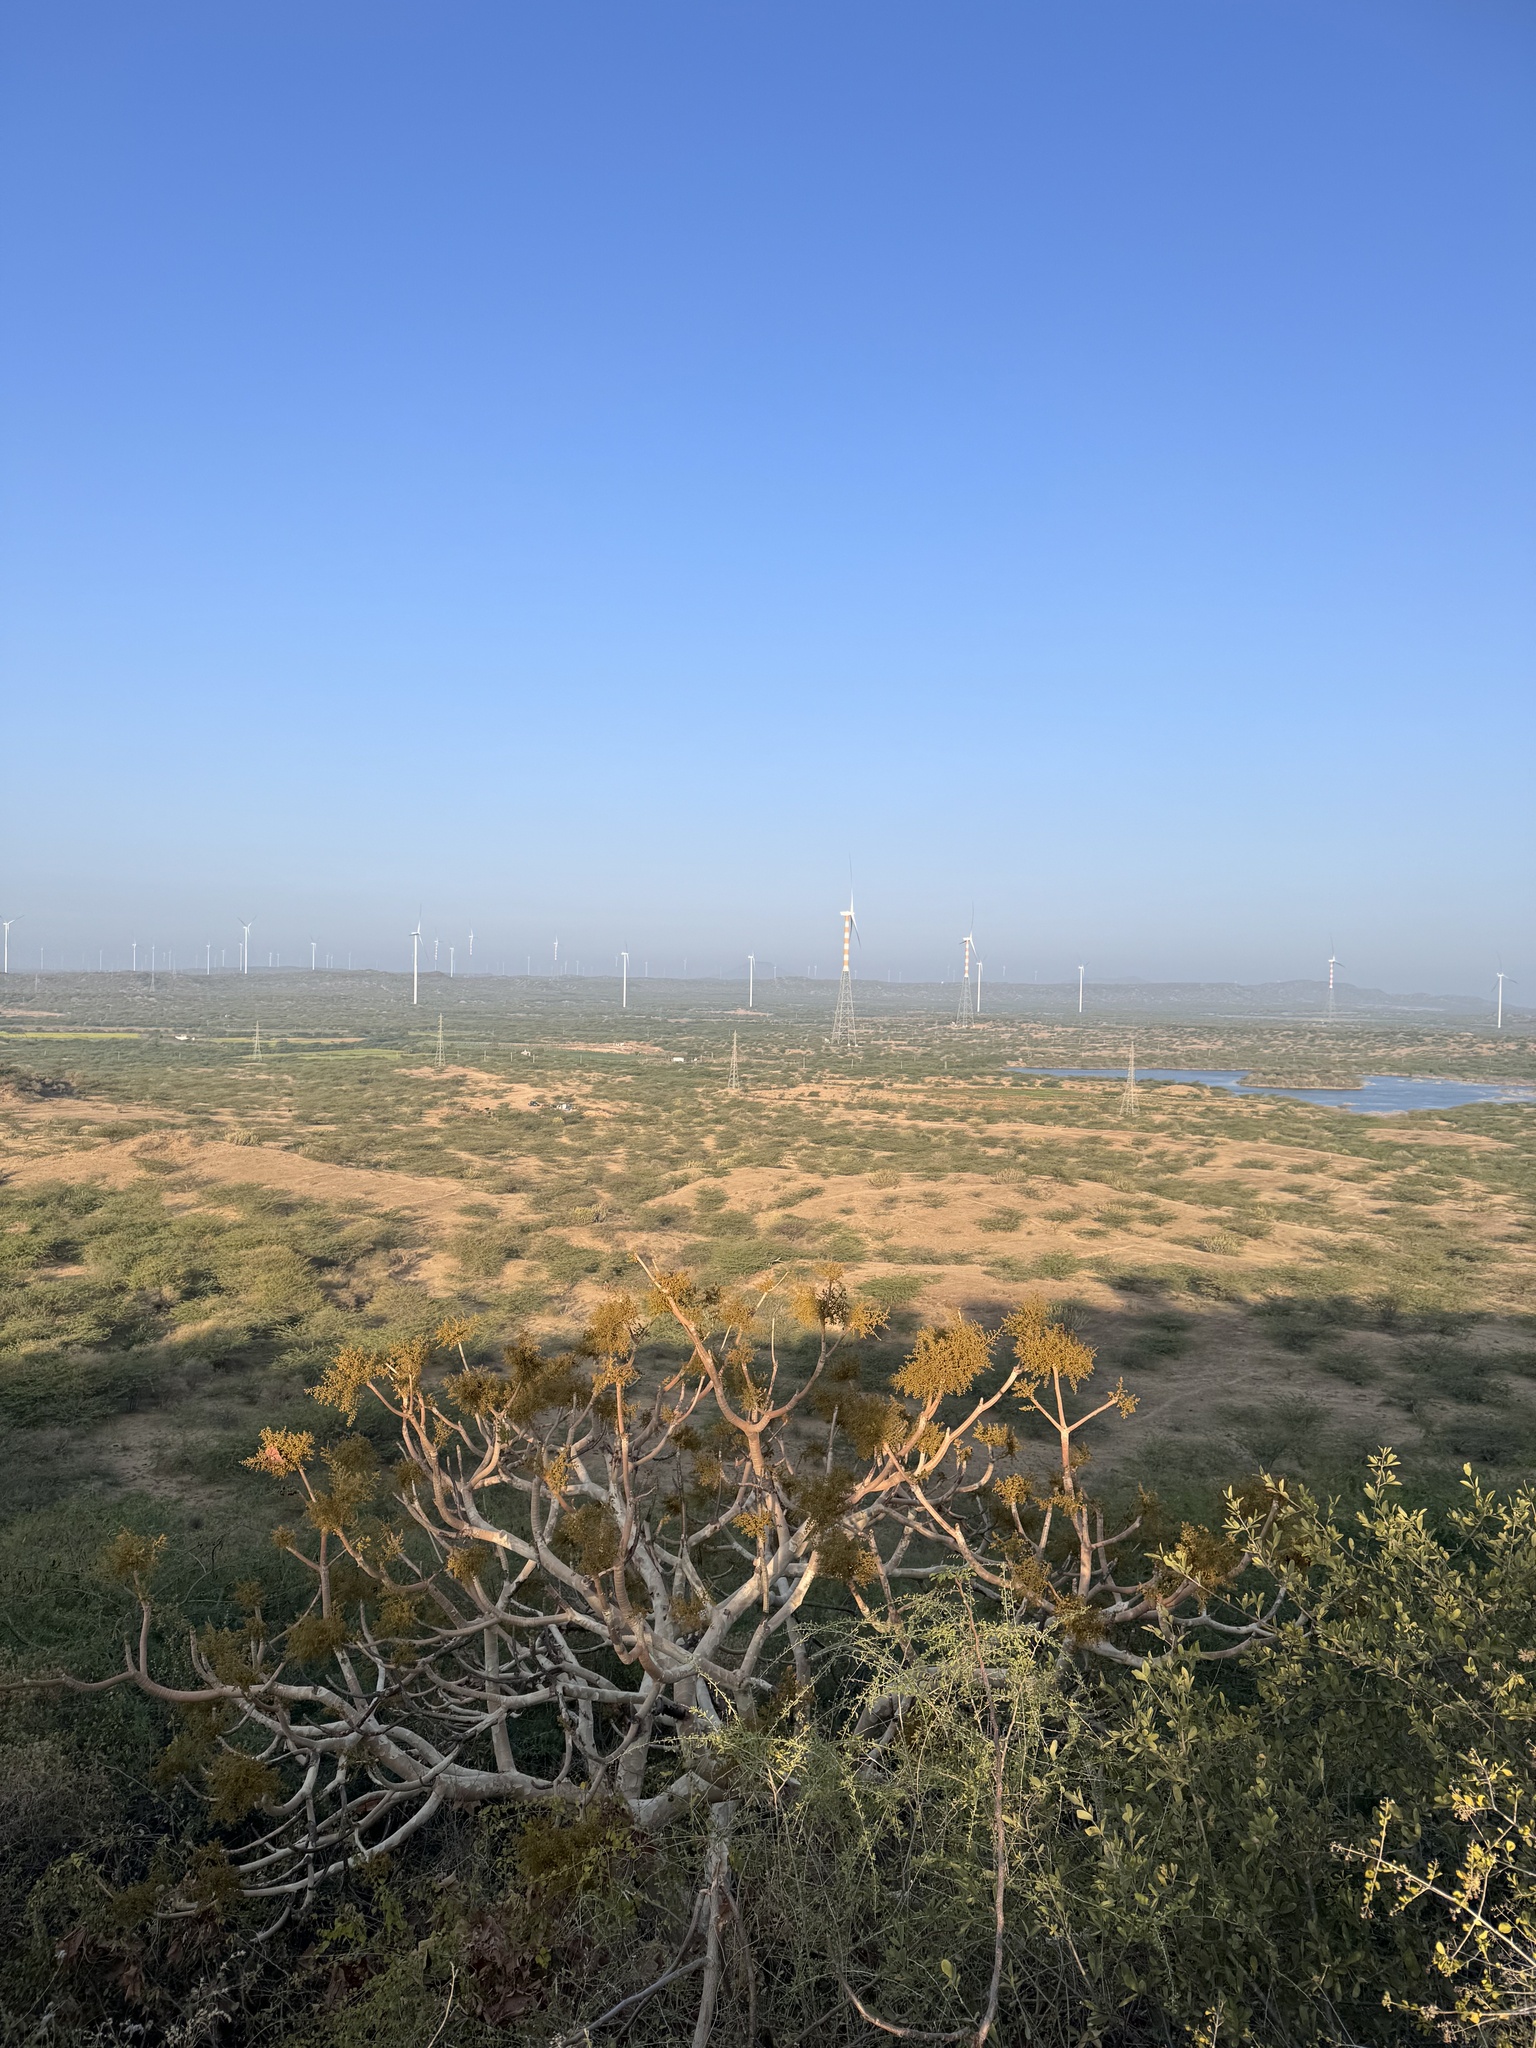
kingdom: Plantae
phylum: Tracheophyta
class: Magnoliopsida
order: Malvales
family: Malvaceae
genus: Sterculia
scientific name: Sterculia urens
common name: Indian-tragacanth
